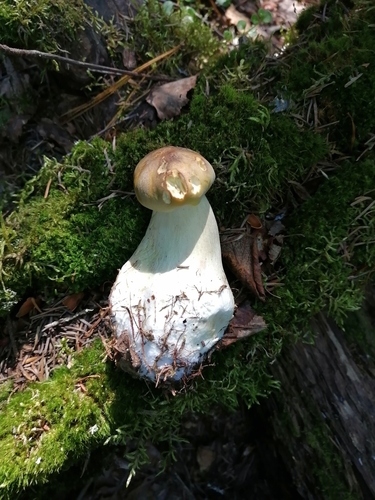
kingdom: Fungi
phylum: Basidiomycota
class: Agaricomycetes
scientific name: Agaricomycetes
